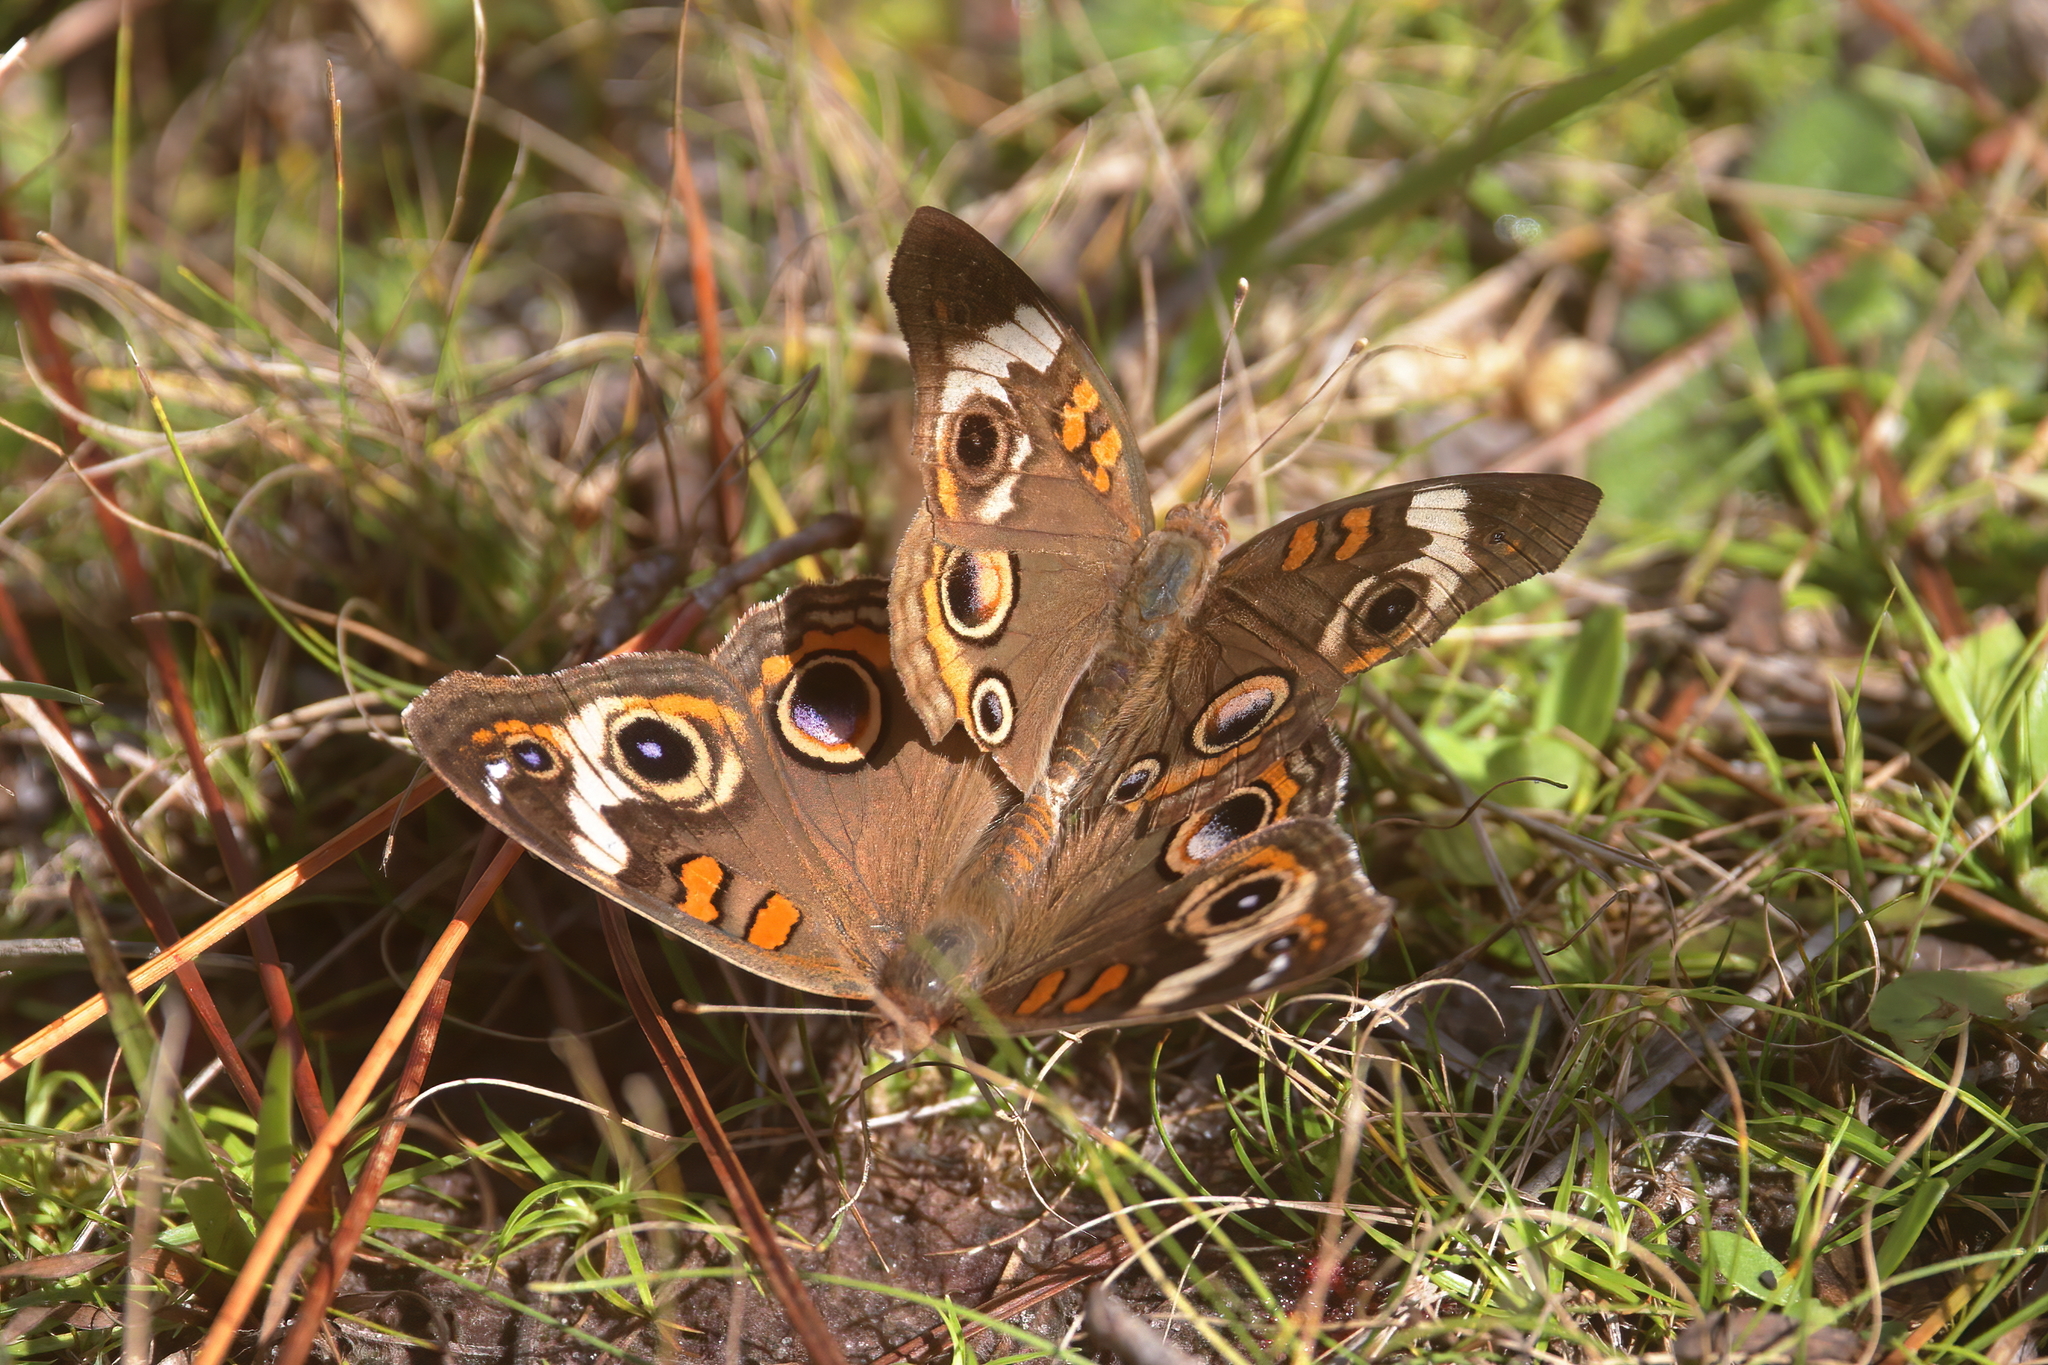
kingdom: Animalia
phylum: Arthropoda
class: Insecta
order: Lepidoptera
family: Nymphalidae
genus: Junonia
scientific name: Junonia coenia
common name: Common buckeye
